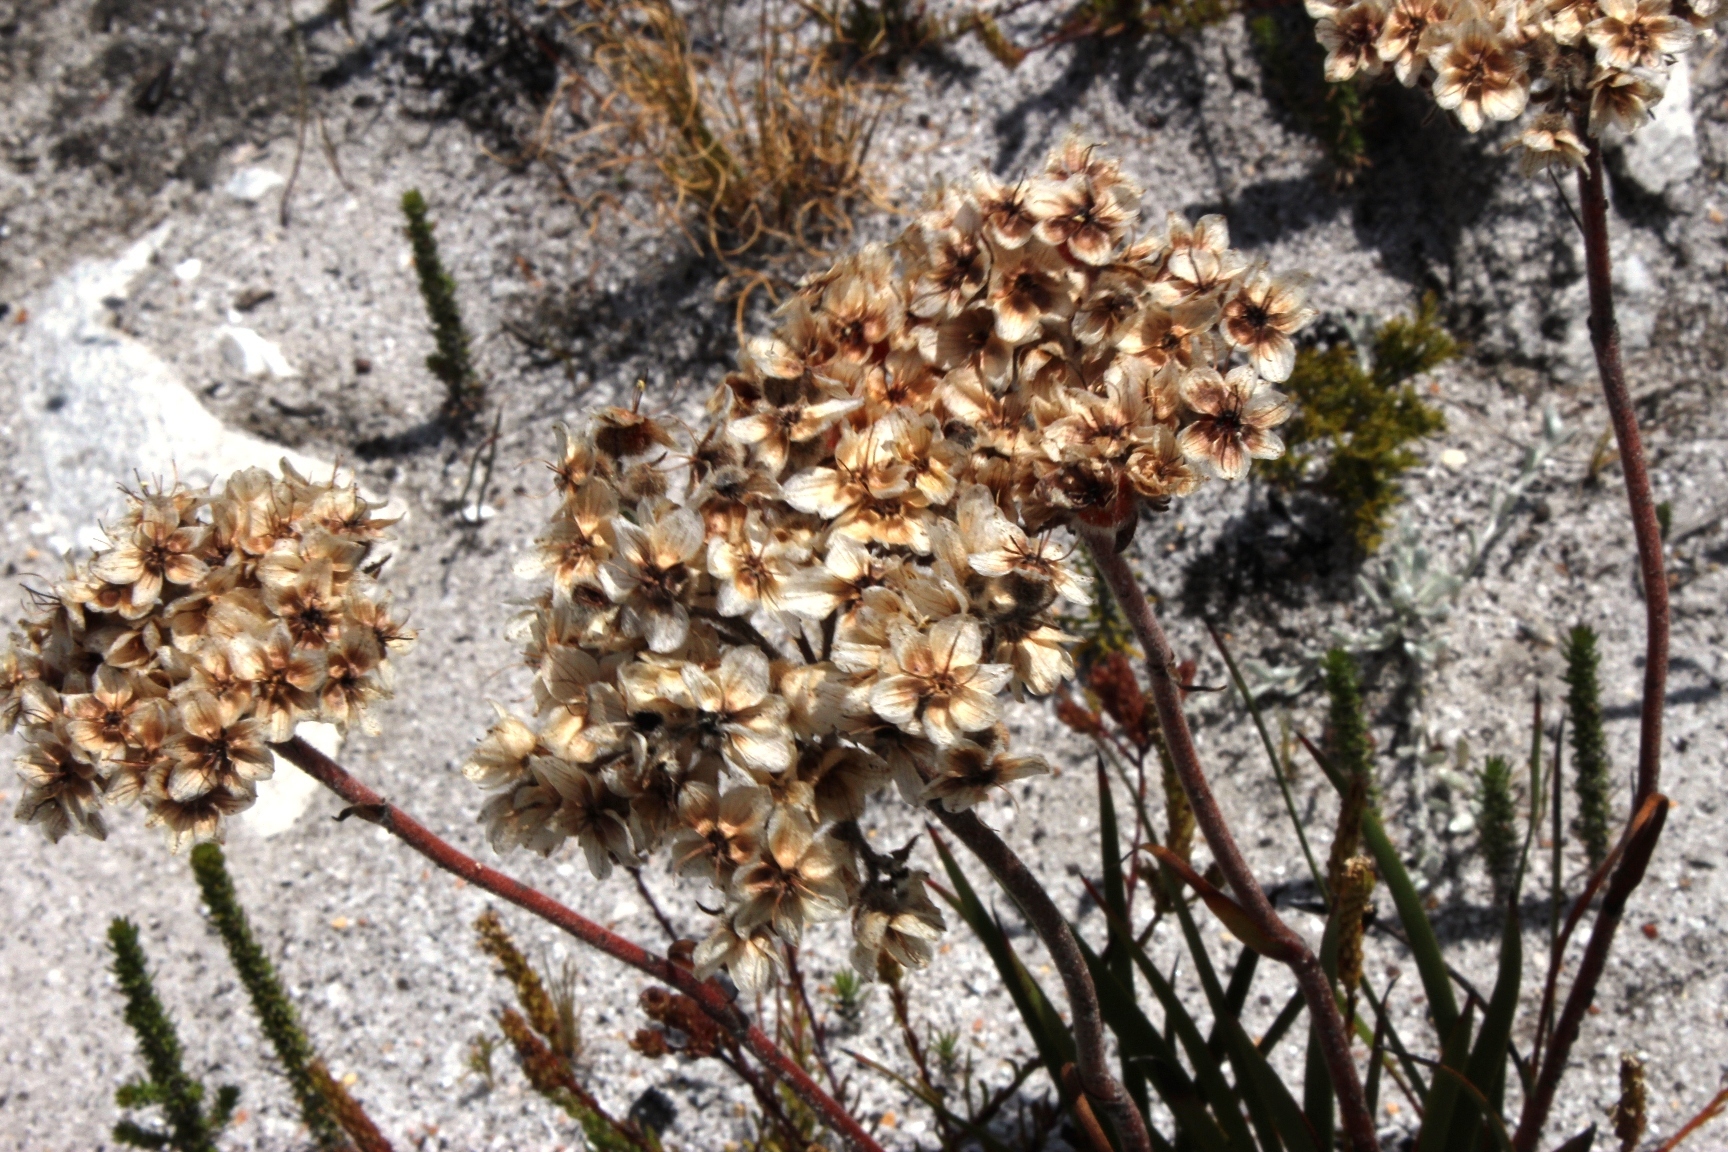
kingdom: Plantae
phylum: Tracheophyta
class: Liliopsida
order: Commelinales
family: Haemodoraceae
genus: Dilatris
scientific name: Dilatris corymbosa
